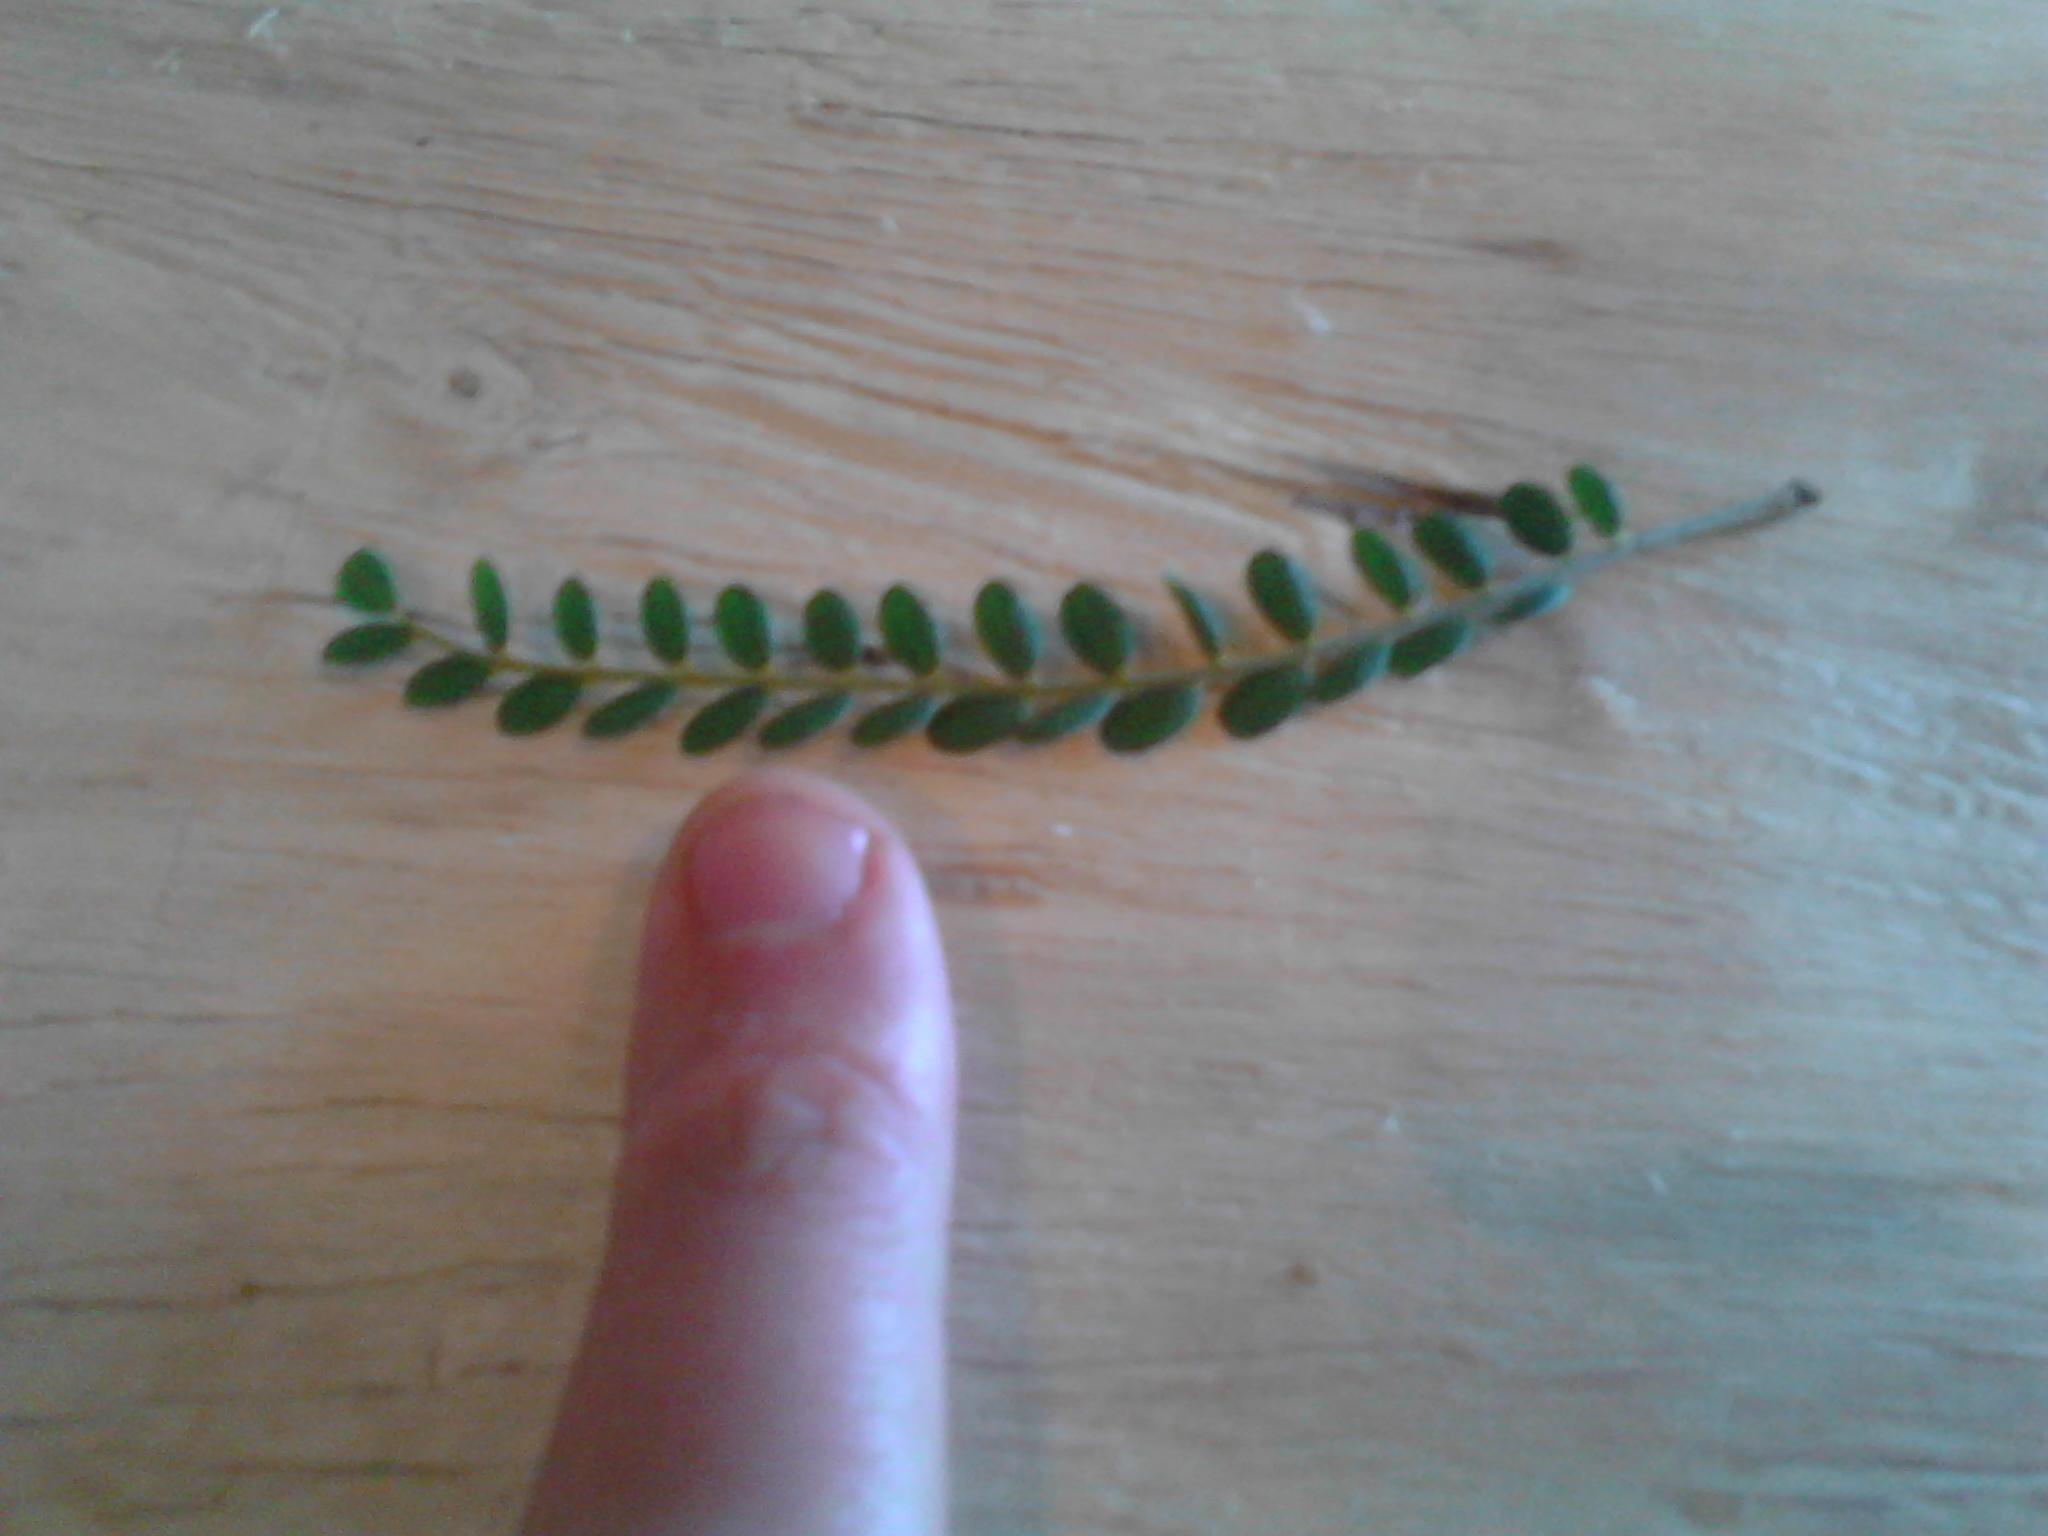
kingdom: Plantae
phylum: Tracheophyta
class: Magnoliopsida
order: Fabales
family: Fabaceae
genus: Sophora
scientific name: Sophora microphylla
